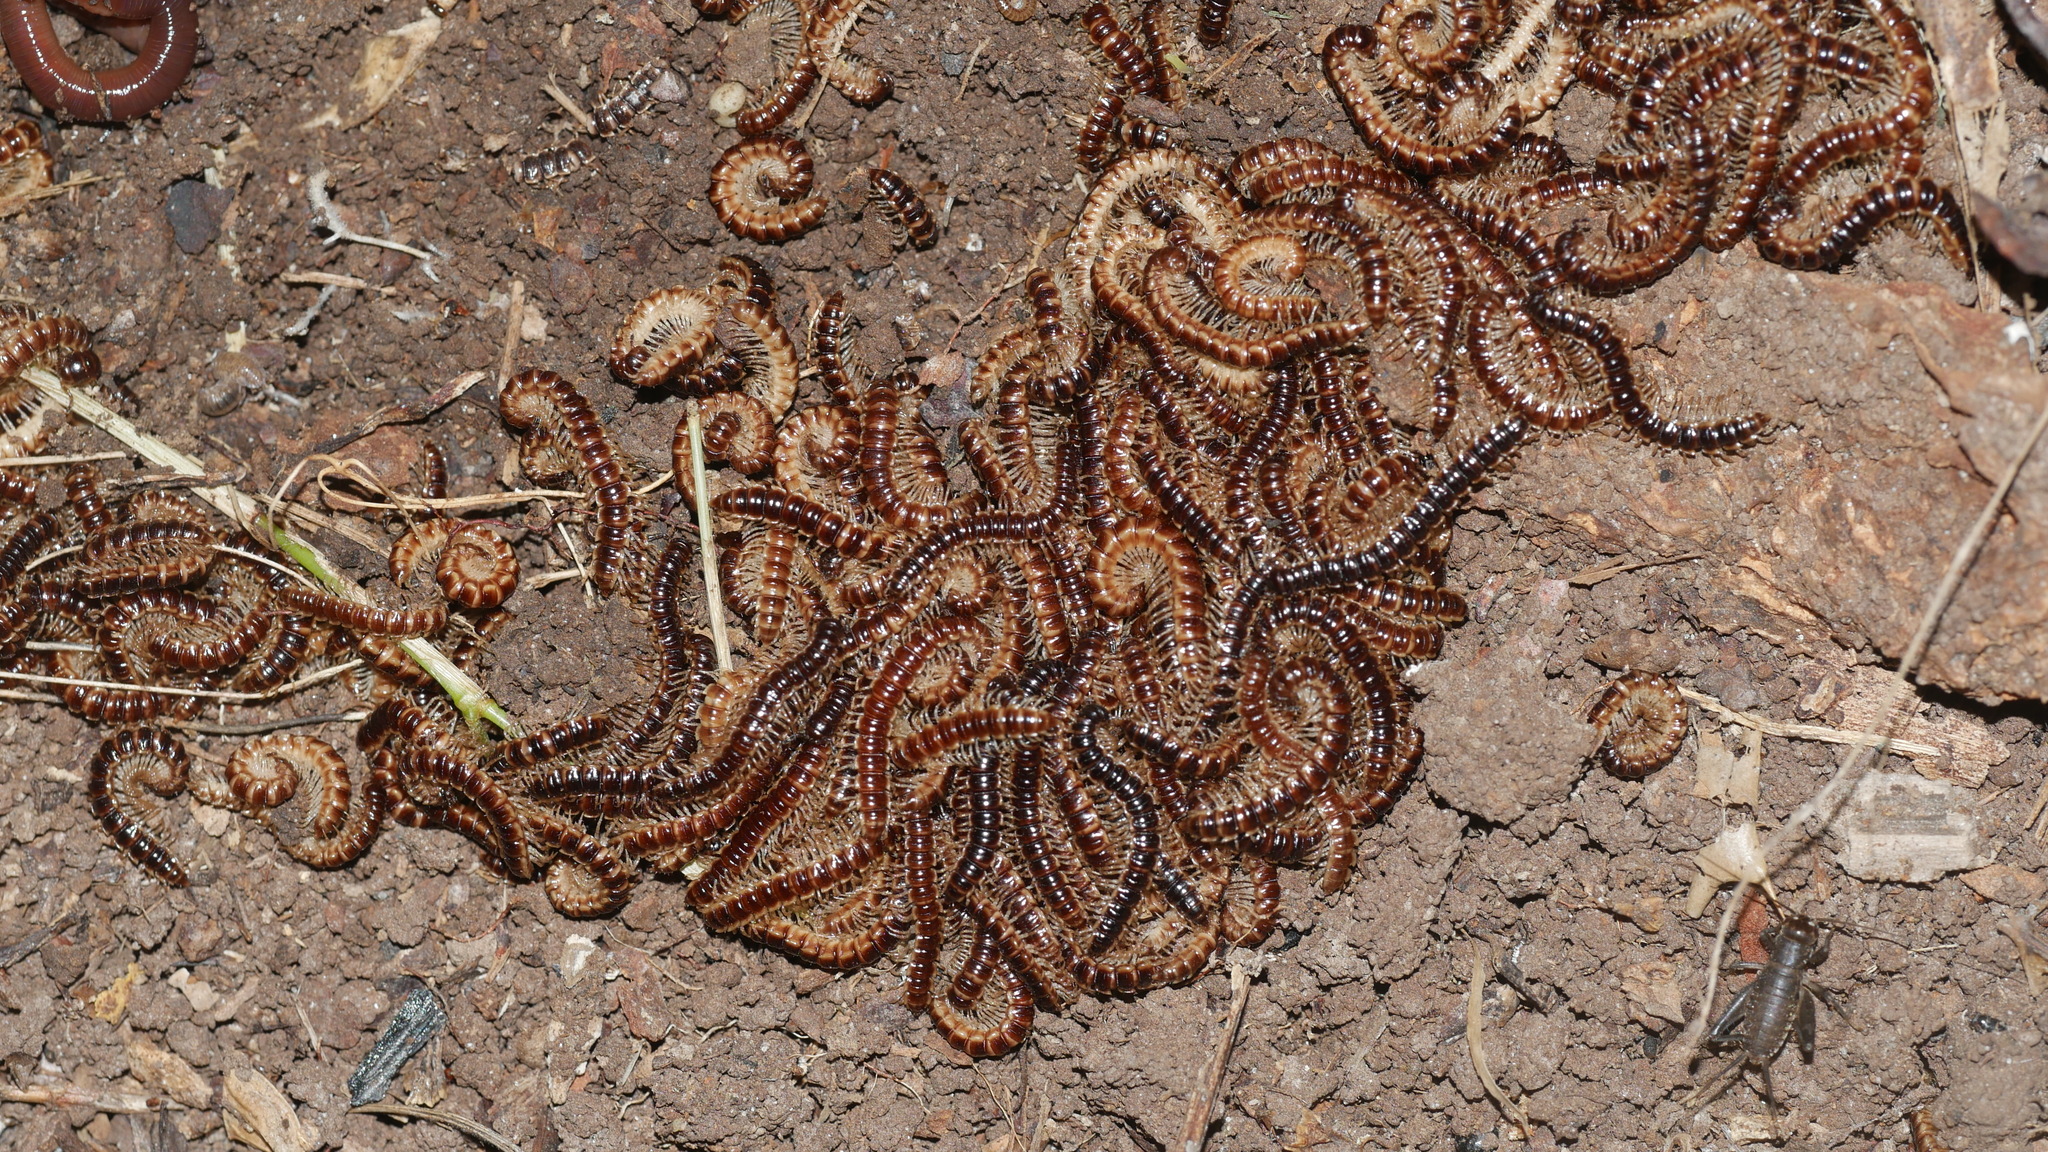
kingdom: Animalia
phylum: Arthropoda
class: Diplopoda
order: Polydesmida
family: Paradoxosomatidae
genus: Oxidus
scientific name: Oxidus gracilis
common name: Greenhouse millipede
